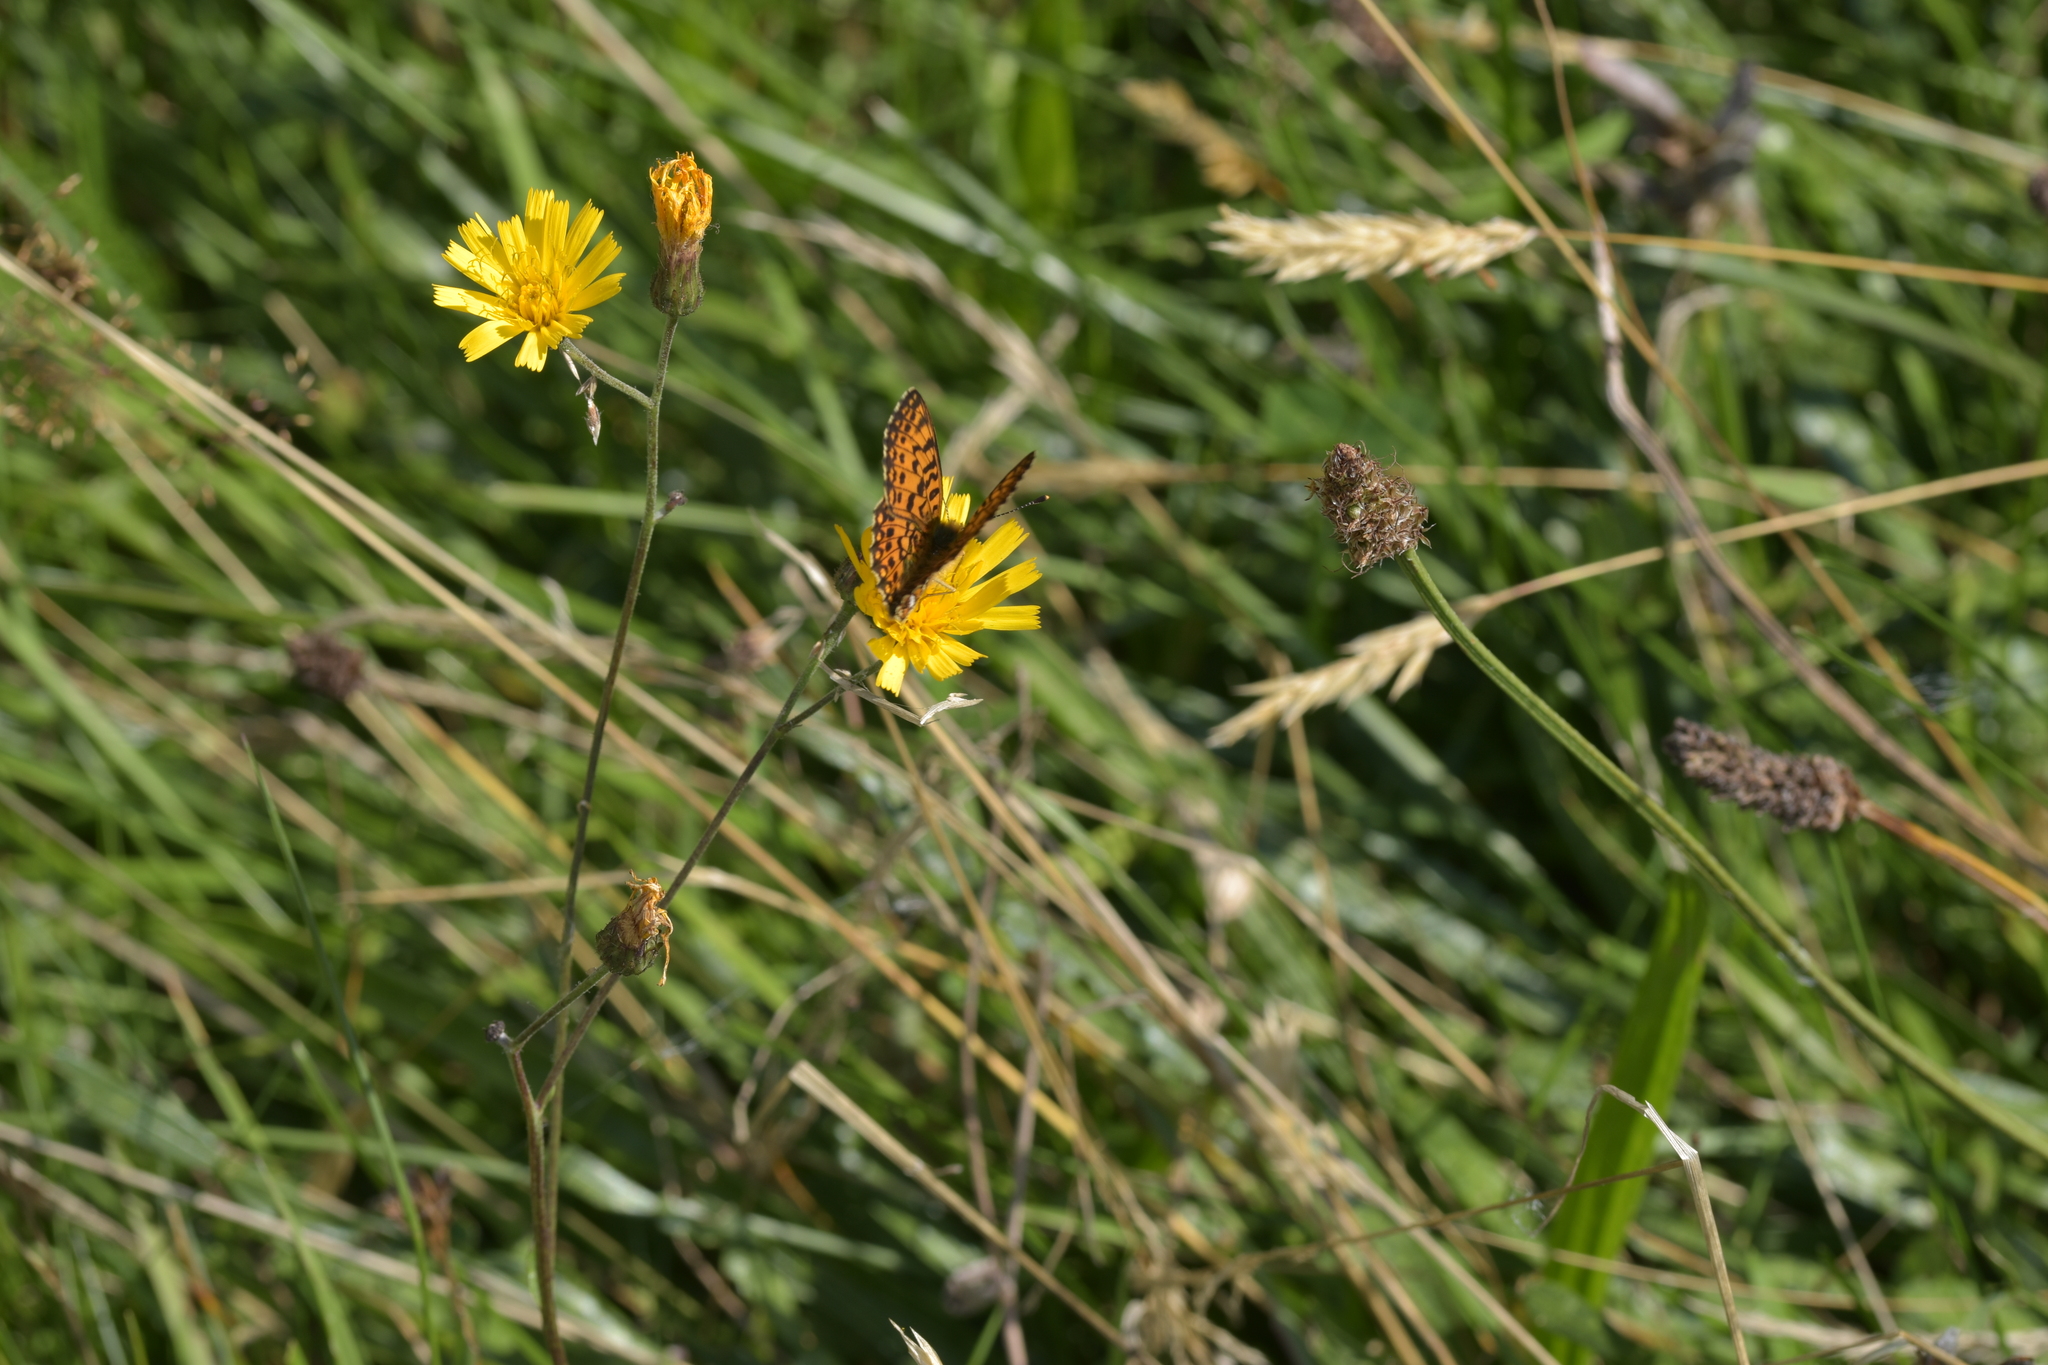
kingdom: Animalia
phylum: Arthropoda
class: Insecta
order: Lepidoptera
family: Nymphalidae
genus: Boloria
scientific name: Boloria selene
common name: Small pearl-bordered fritillary
